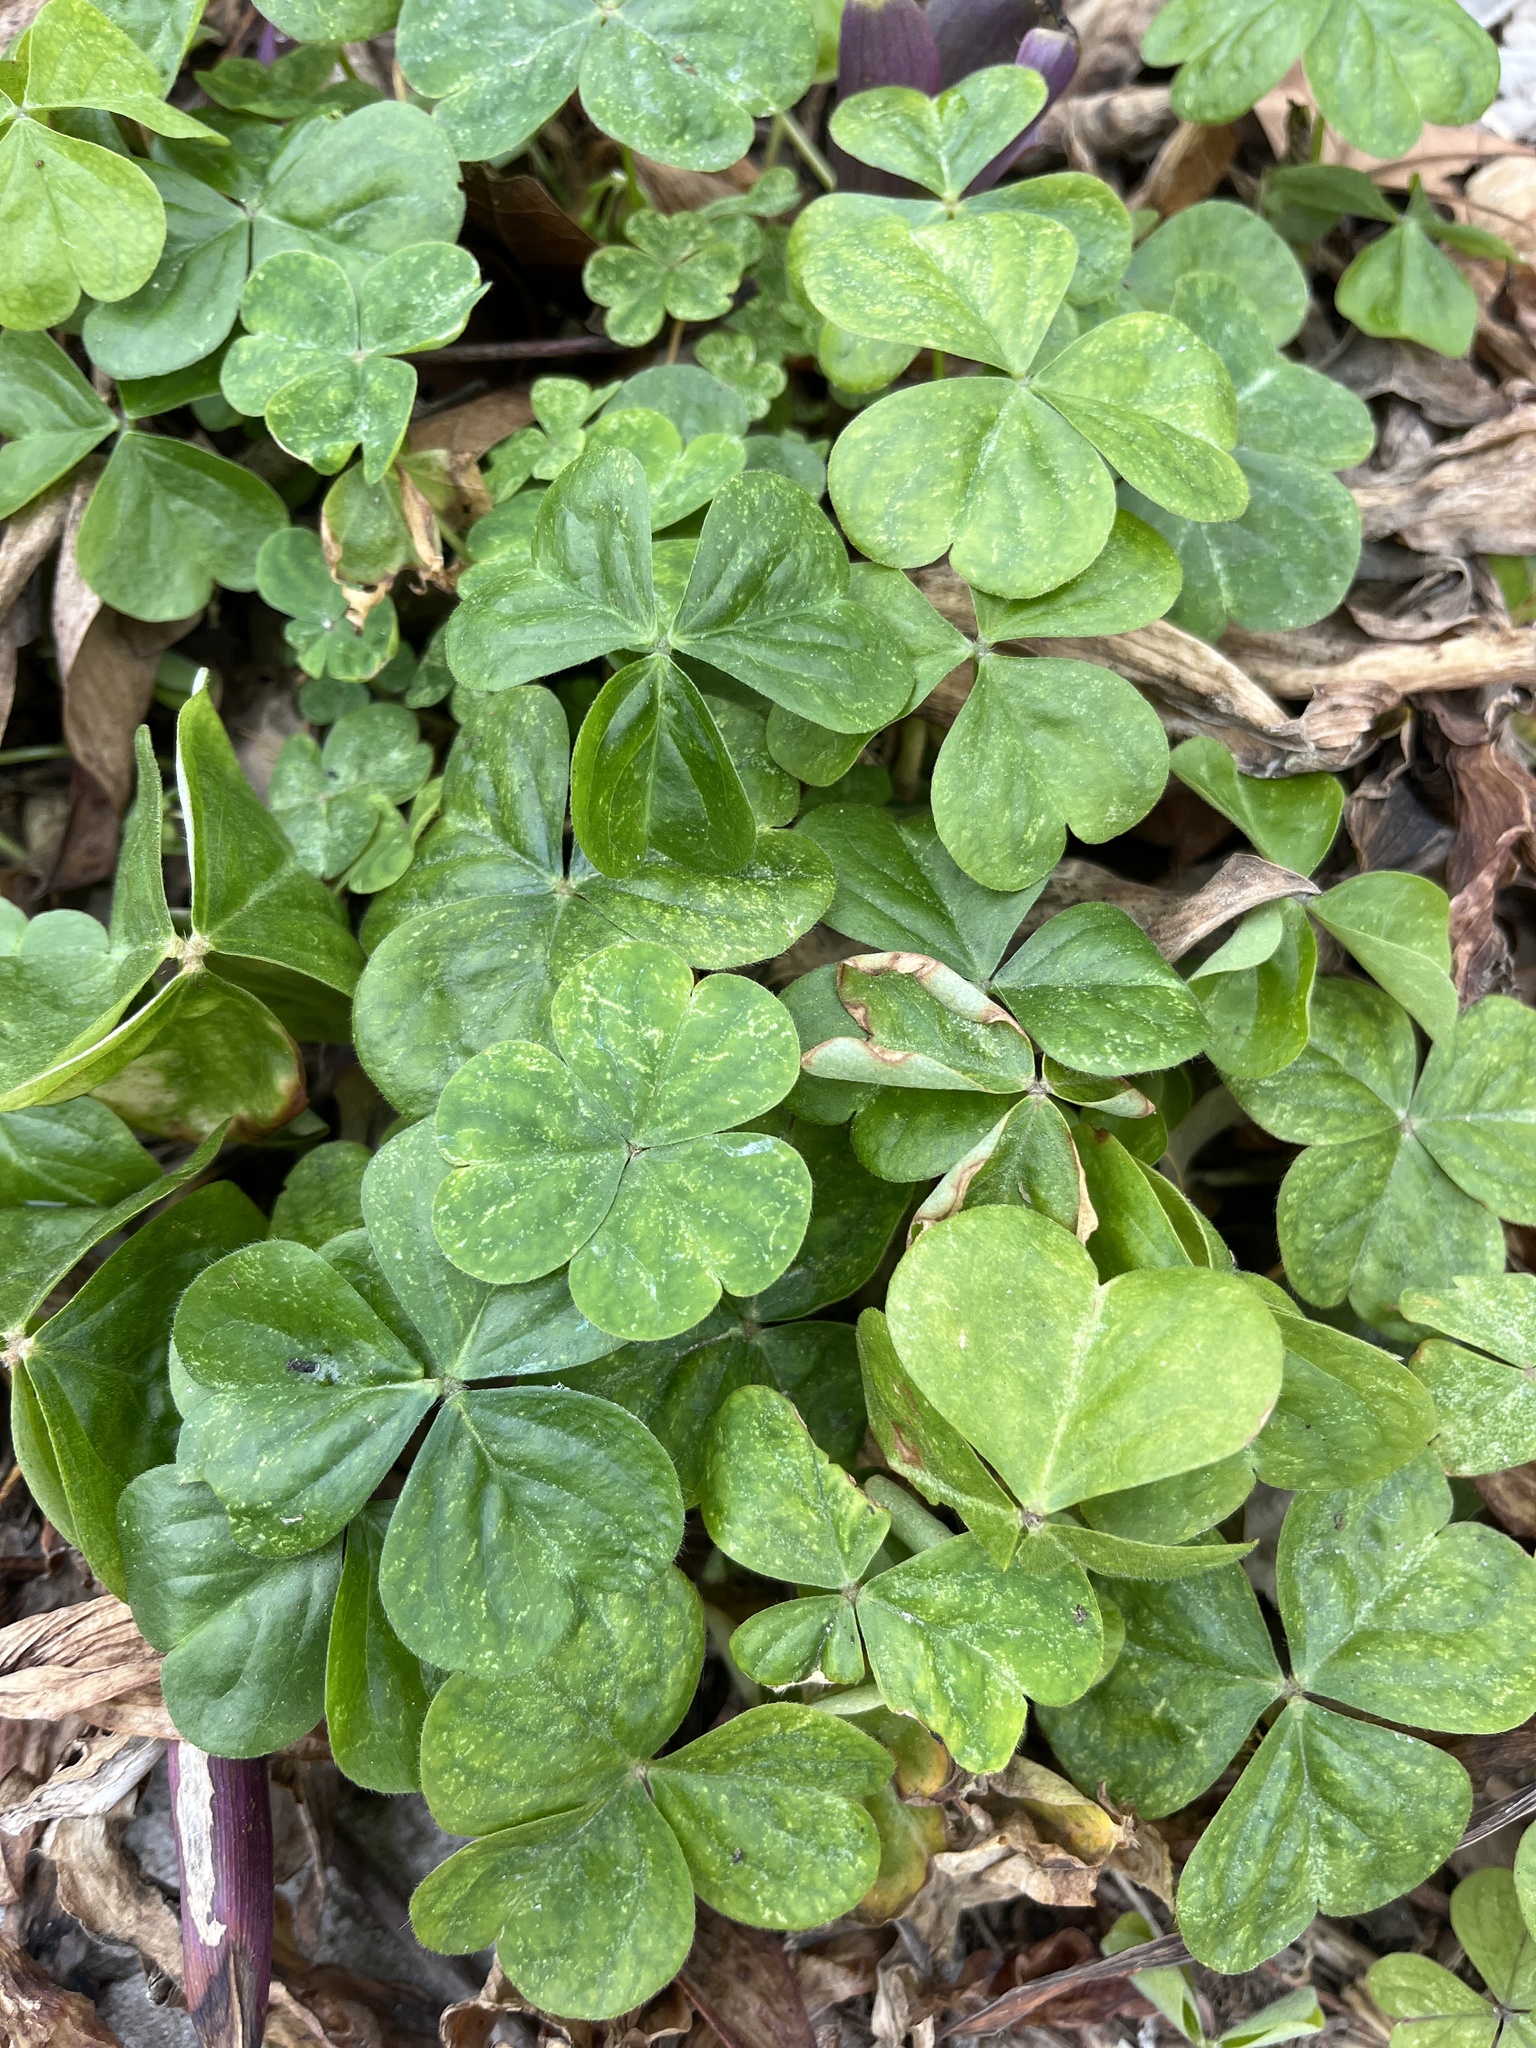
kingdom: Plantae
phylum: Tracheophyta
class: Magnoliopsida
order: Oxalidales
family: Oxalidaceae
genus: Oxalis
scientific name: Oxalis debilis
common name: Large-flowered pink-sorrel
